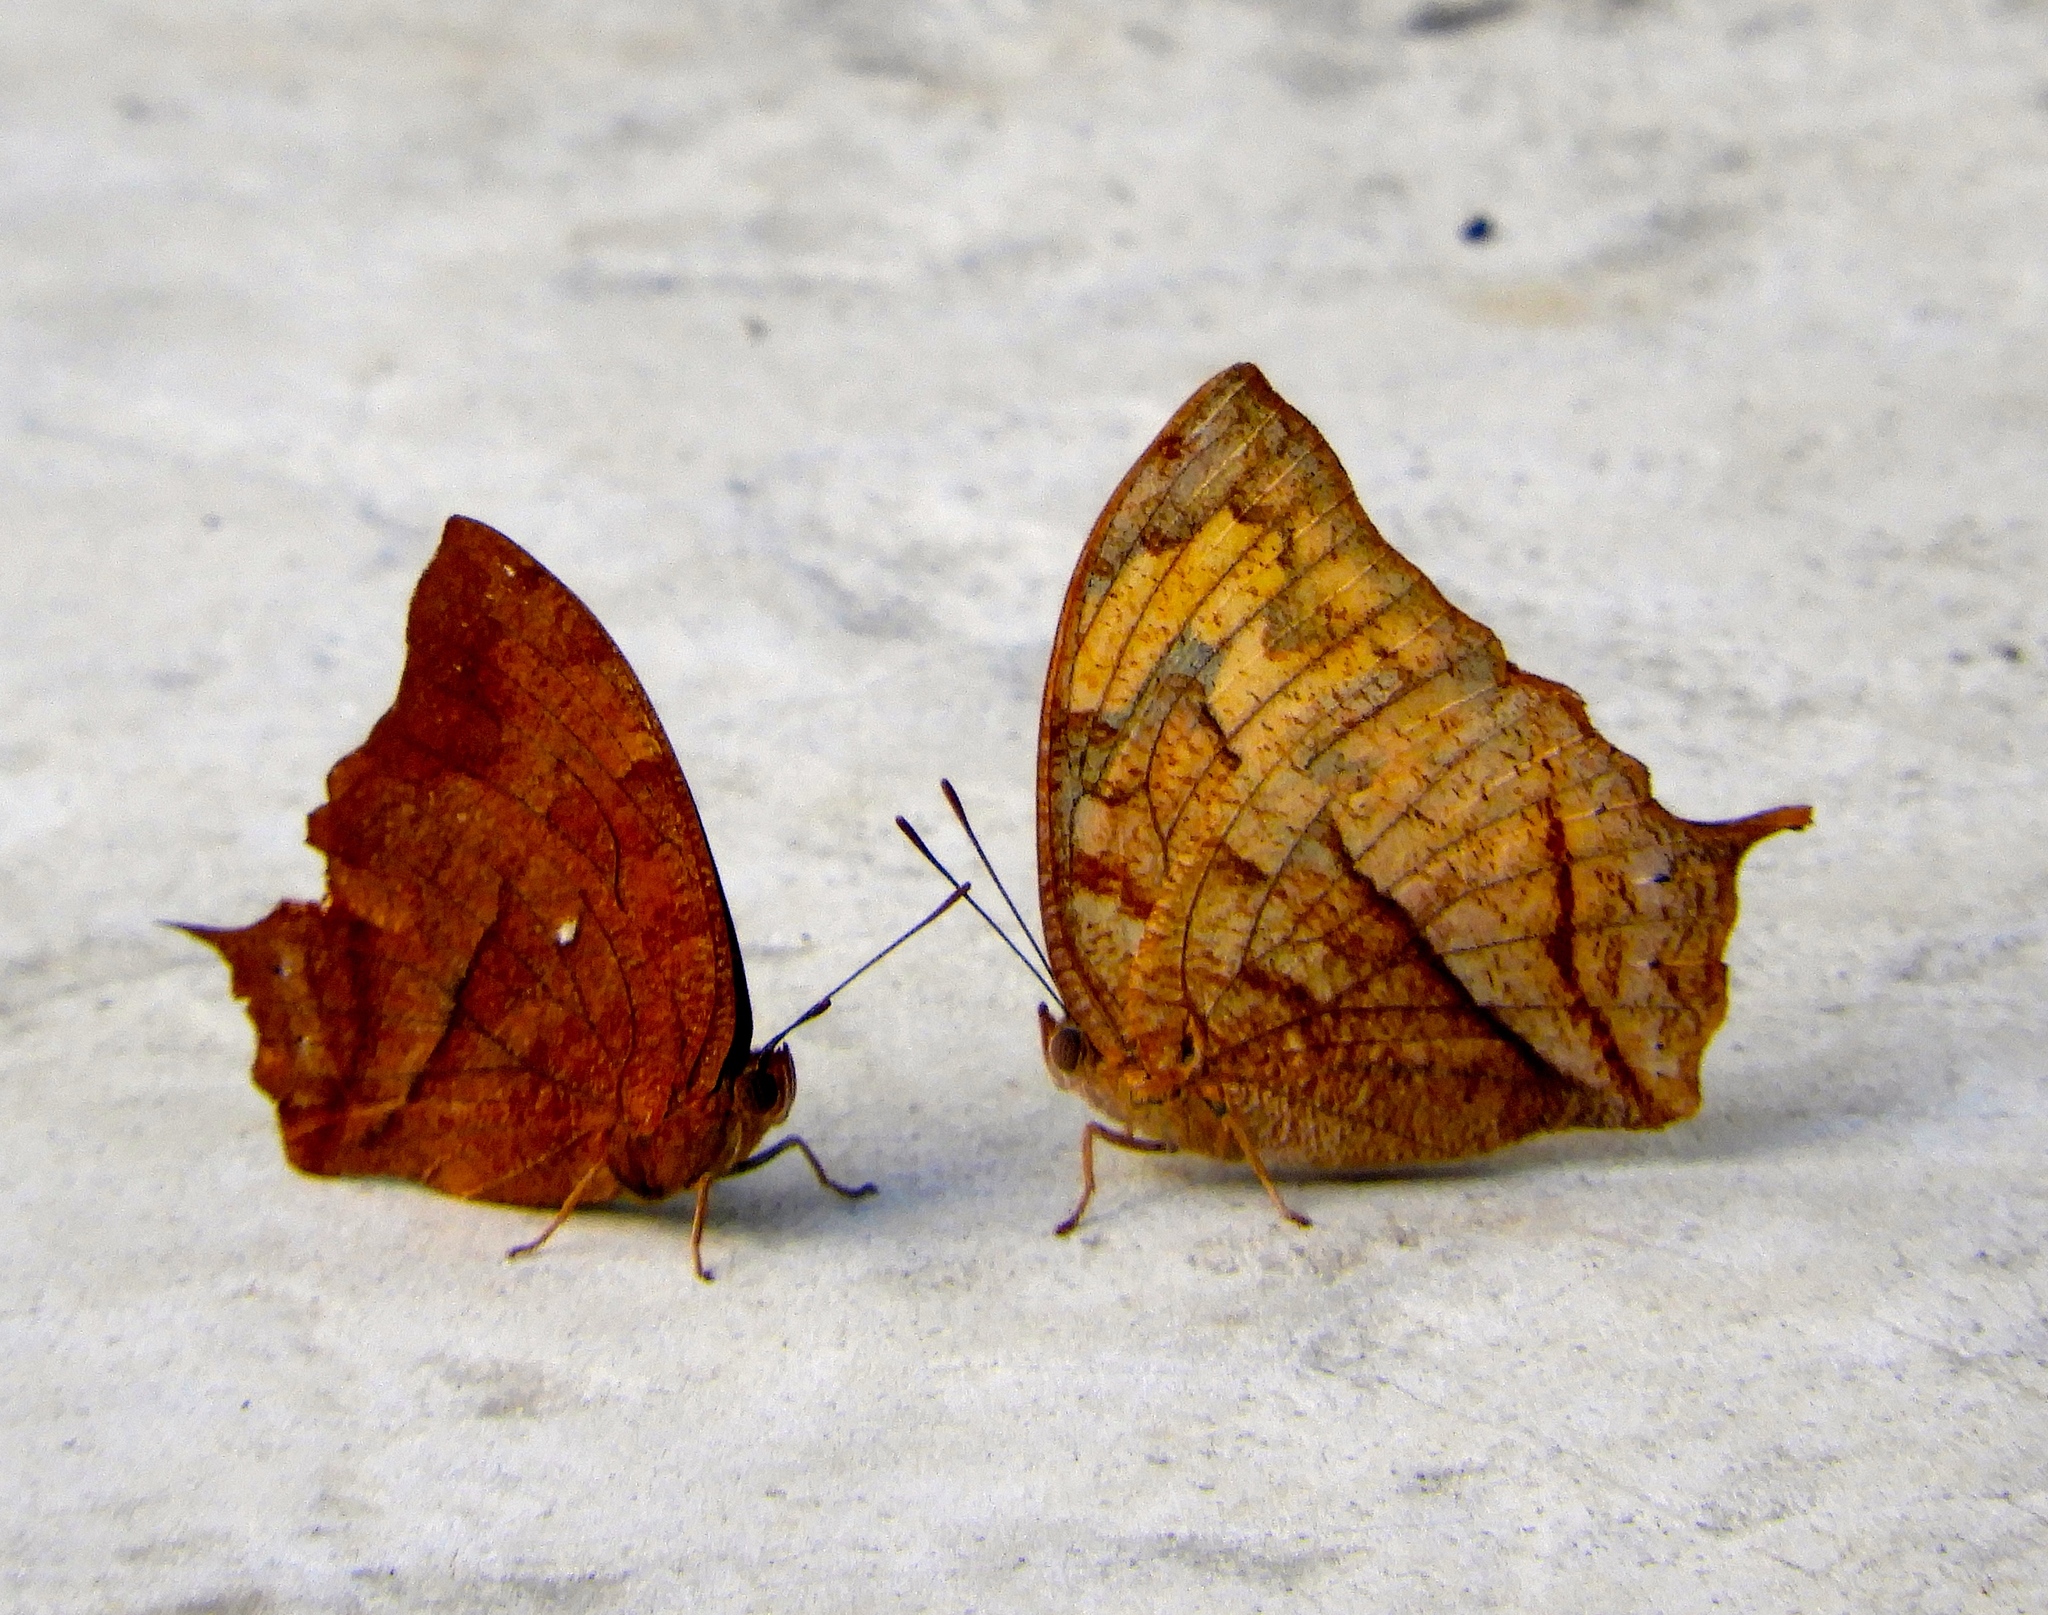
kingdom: Animalia
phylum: Arthropoda
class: Insecta
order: Lepidoptera
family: Nymphalidae
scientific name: Nymphalidae
